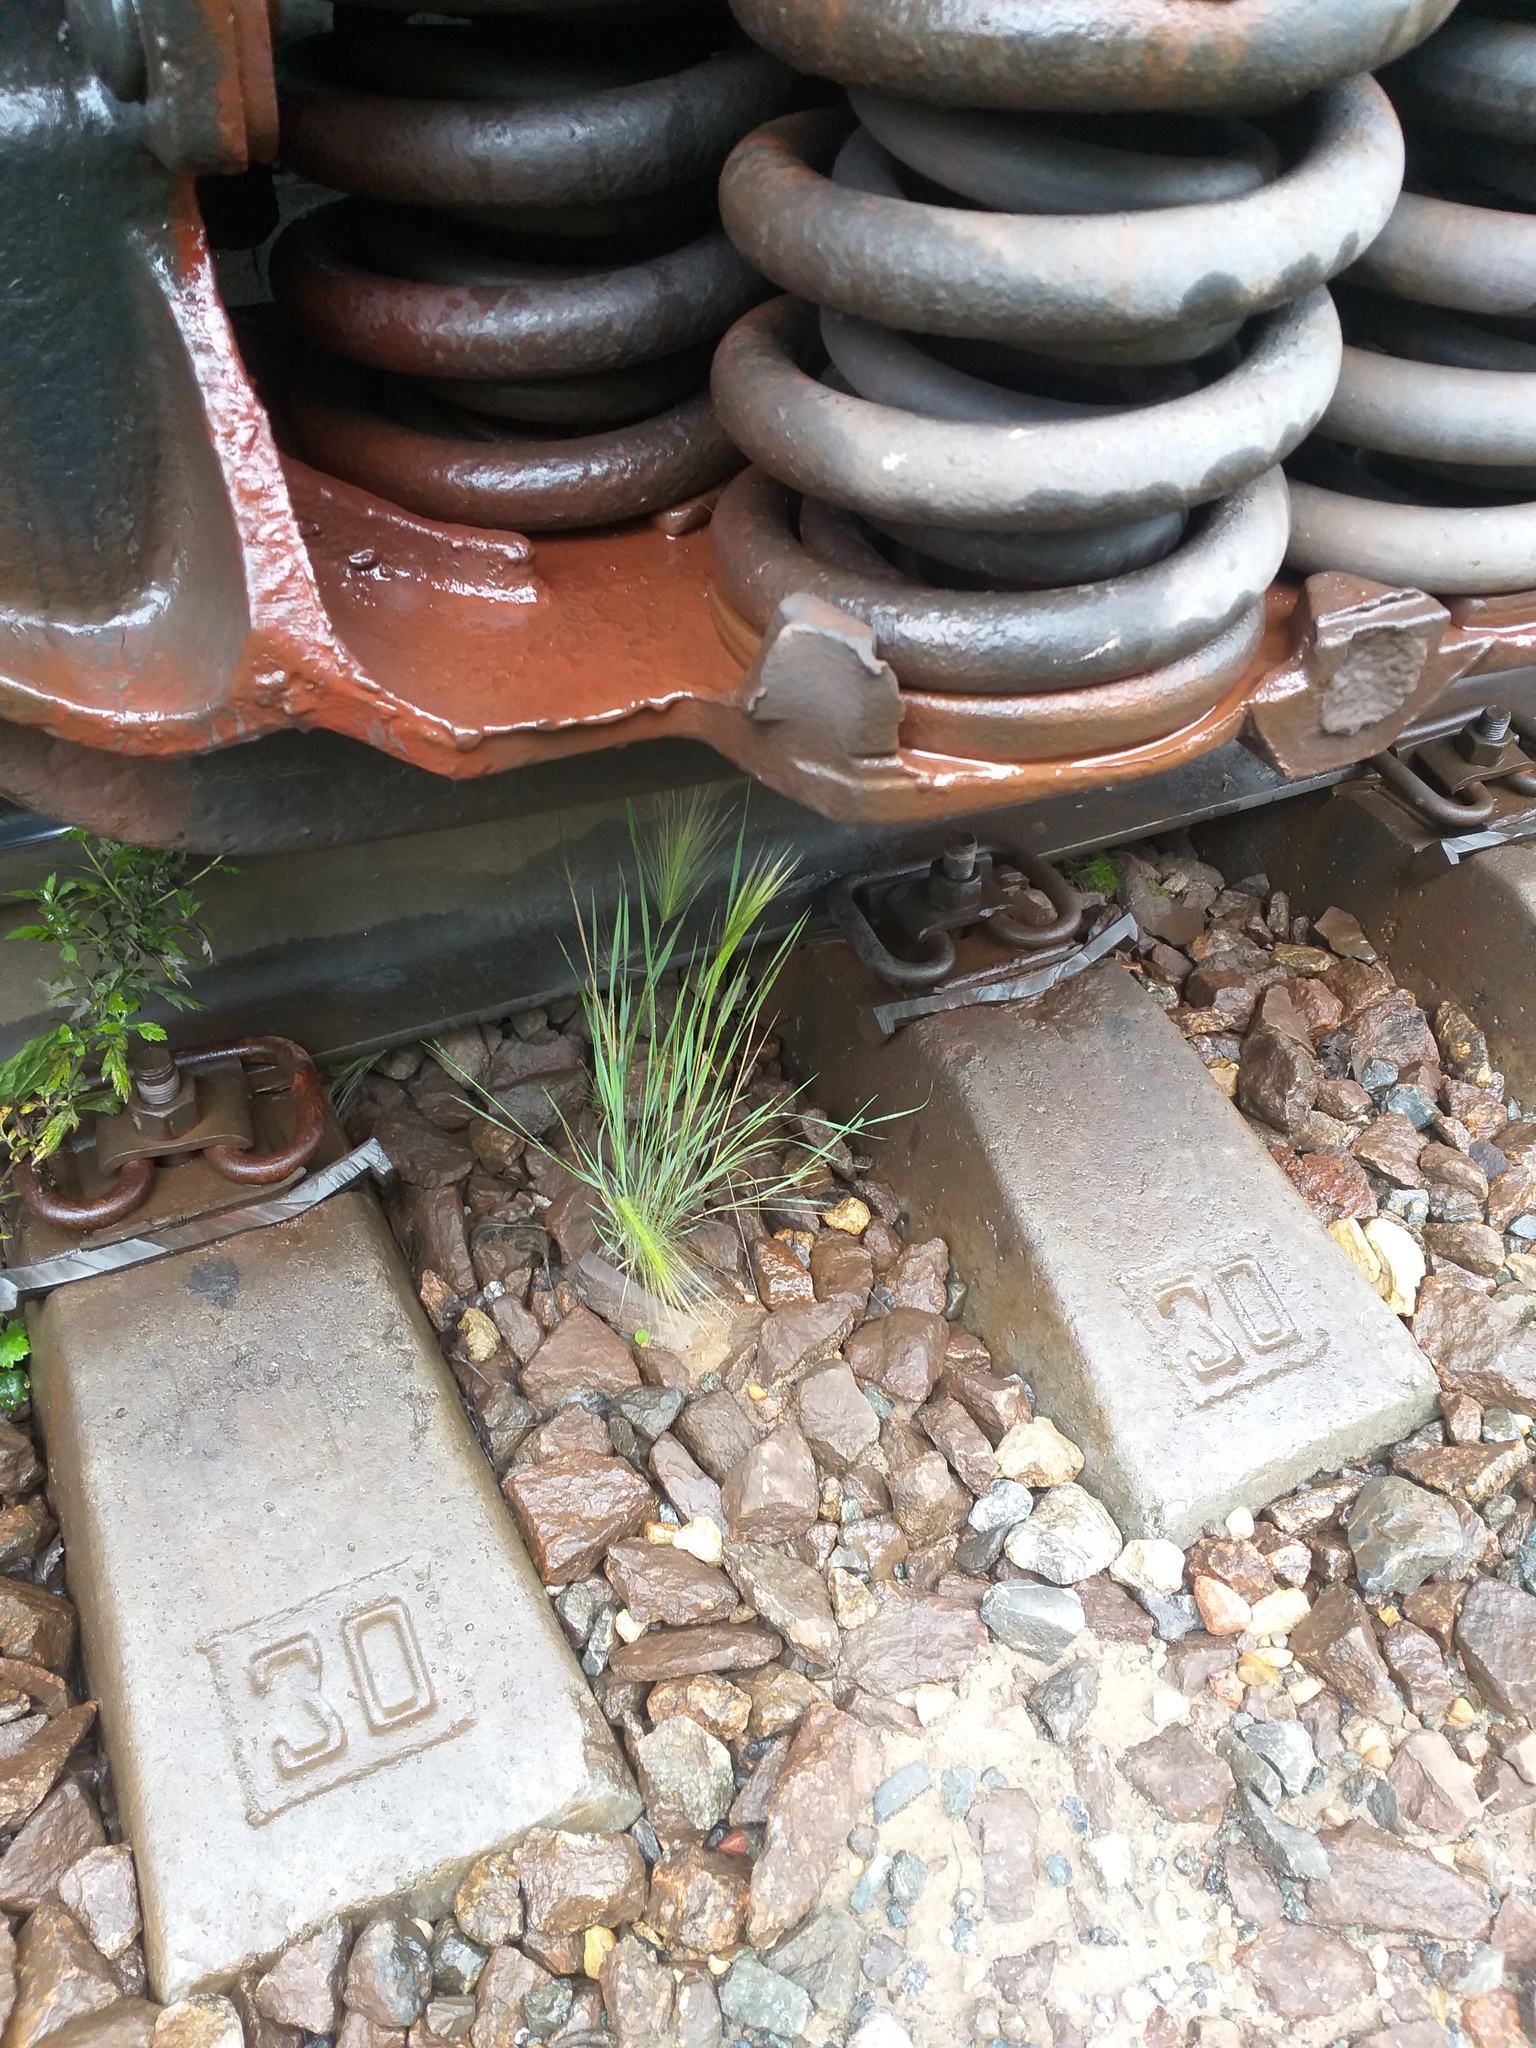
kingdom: Plantae
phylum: Tracheophyta
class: Liliopsida
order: Poales
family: Poaceae
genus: Hordeum
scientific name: Hordeum jubatum
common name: Foxtail barley
